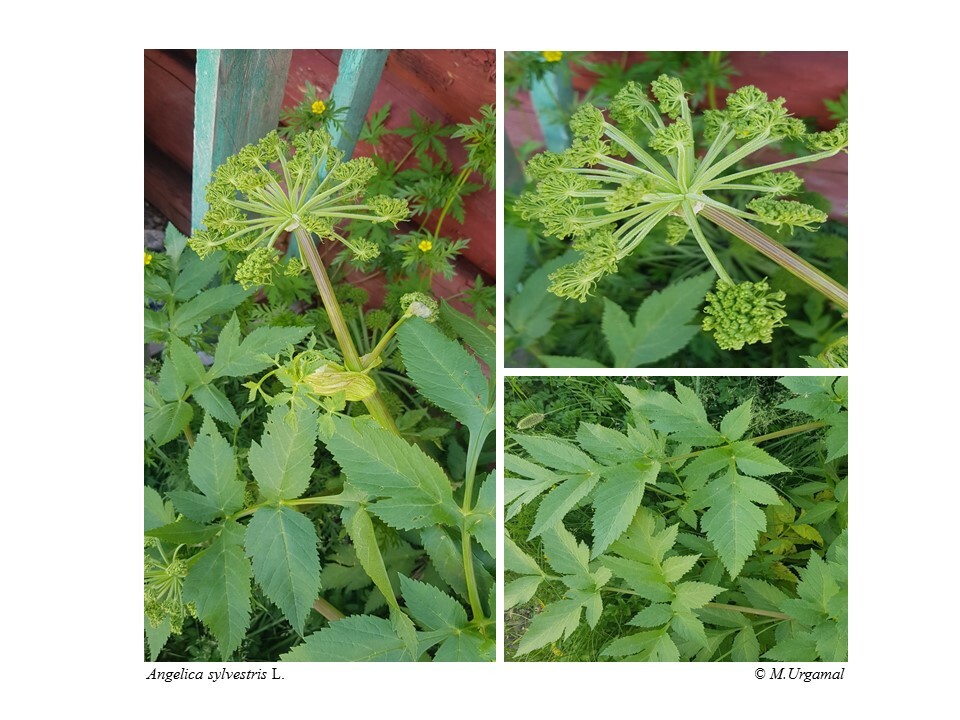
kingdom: Plantae
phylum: Tracheophyta
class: Magnoliopsida
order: Apiales
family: Apiaceae
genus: Angelica
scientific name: Angelica sylvestris
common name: Wild angelica
